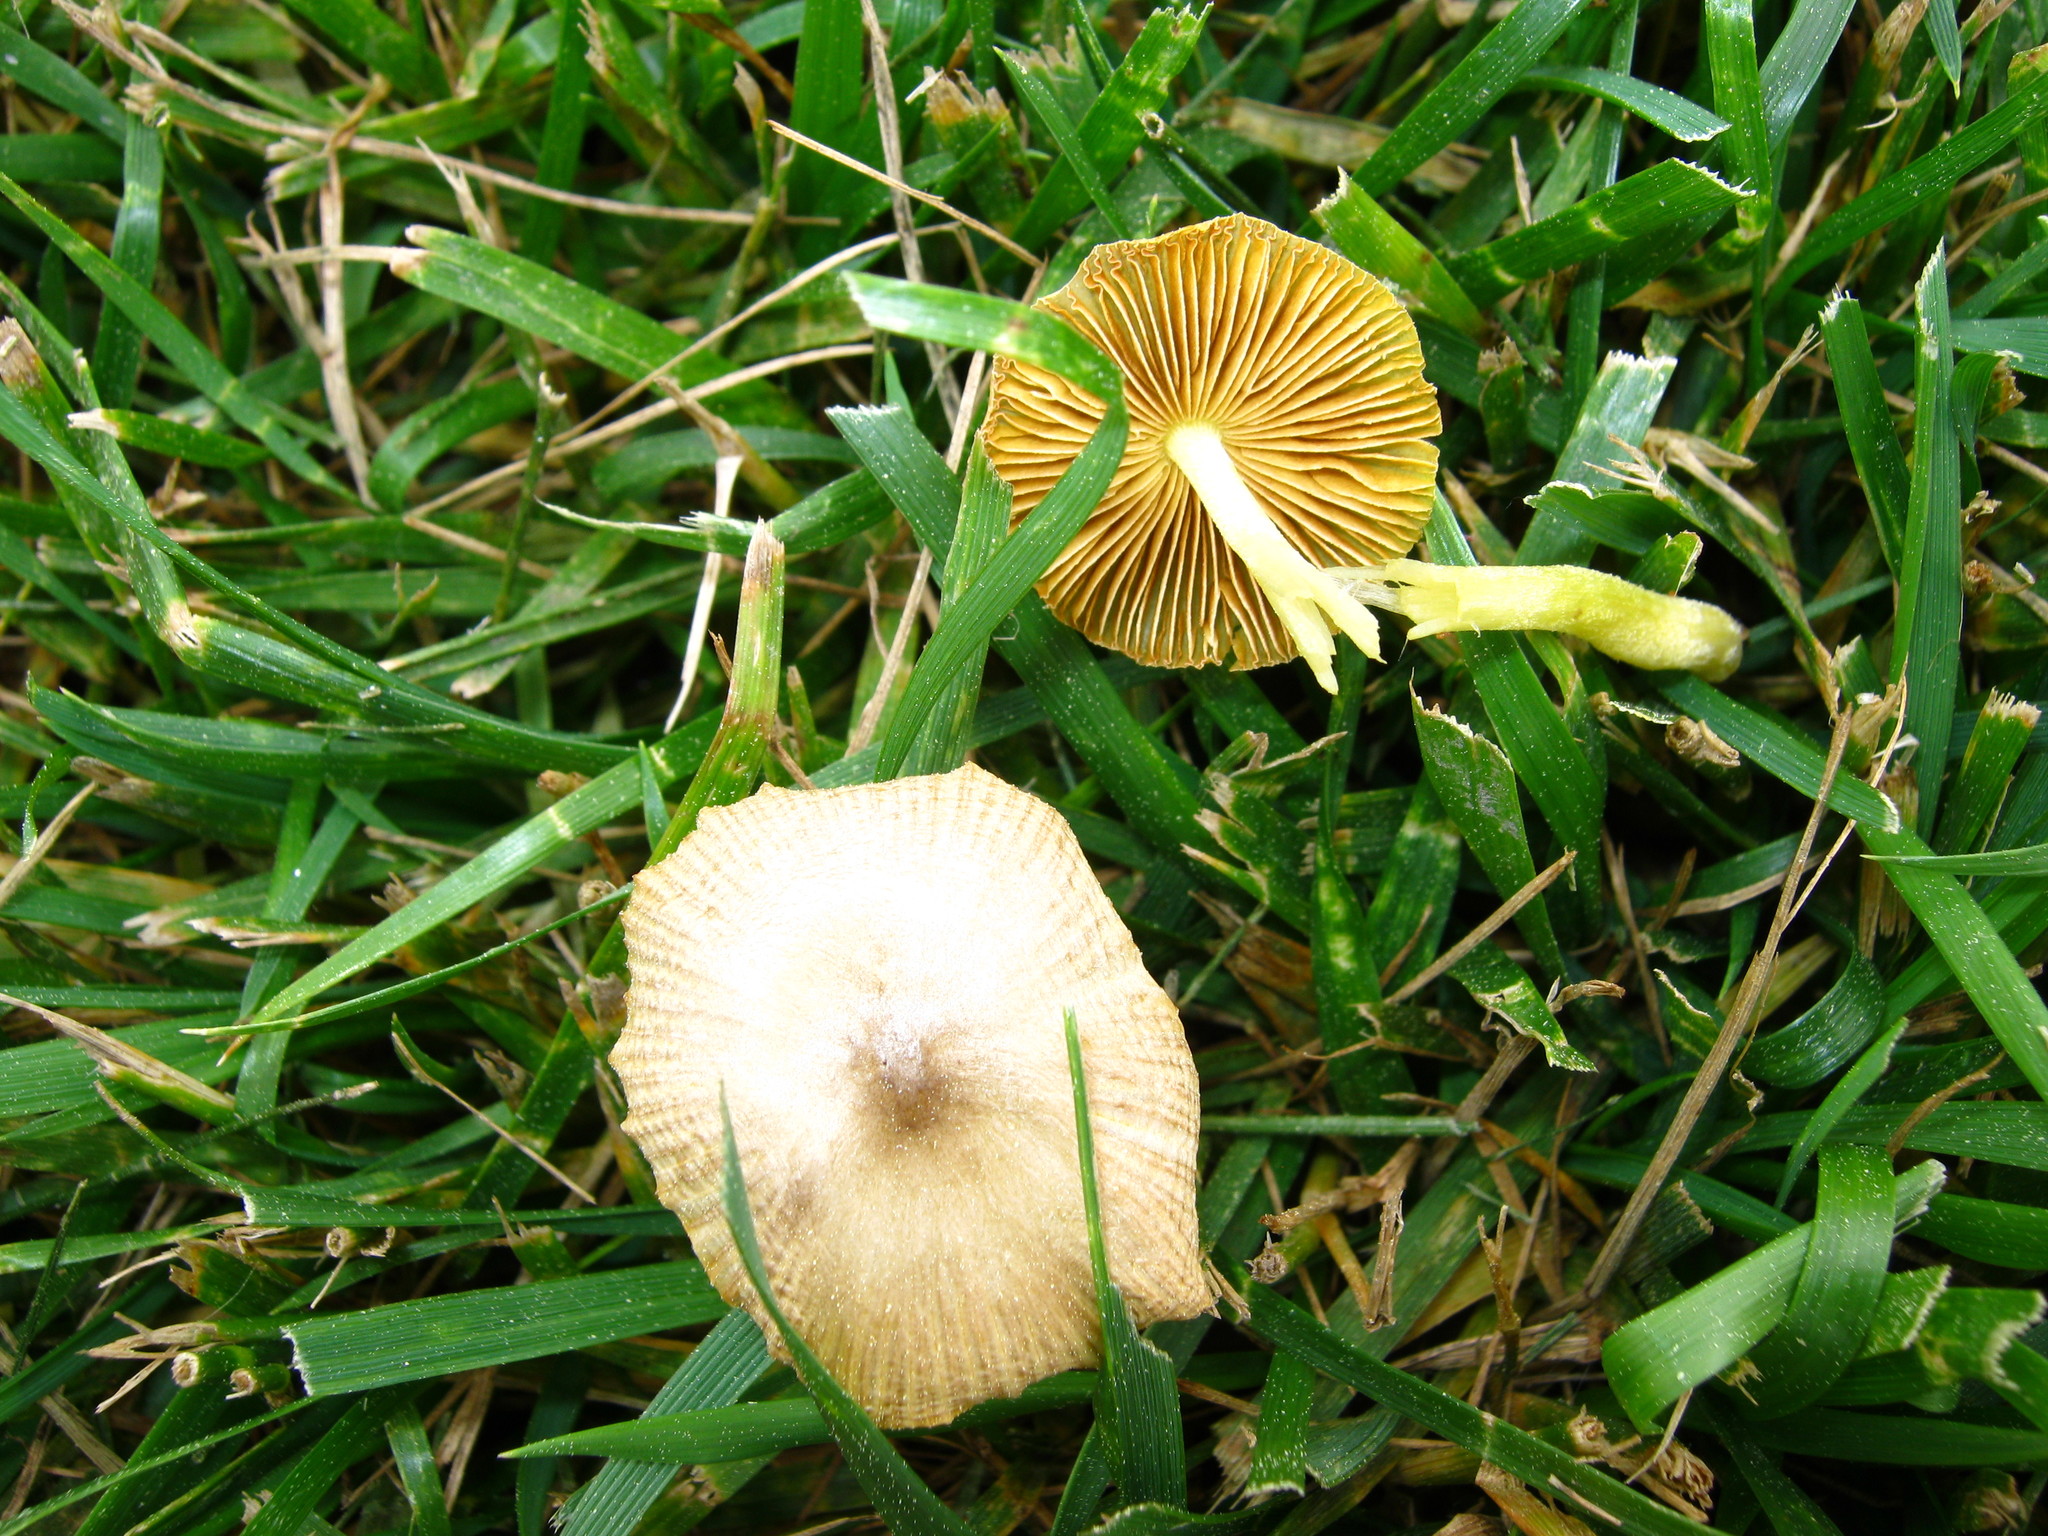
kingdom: Fungi
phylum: Basidiomycota
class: Agaricomycetes
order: Agaricales
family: Bolbitiaceae
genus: Bolbitius
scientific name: Bolbitius titubans
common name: Yellow fieldcap
